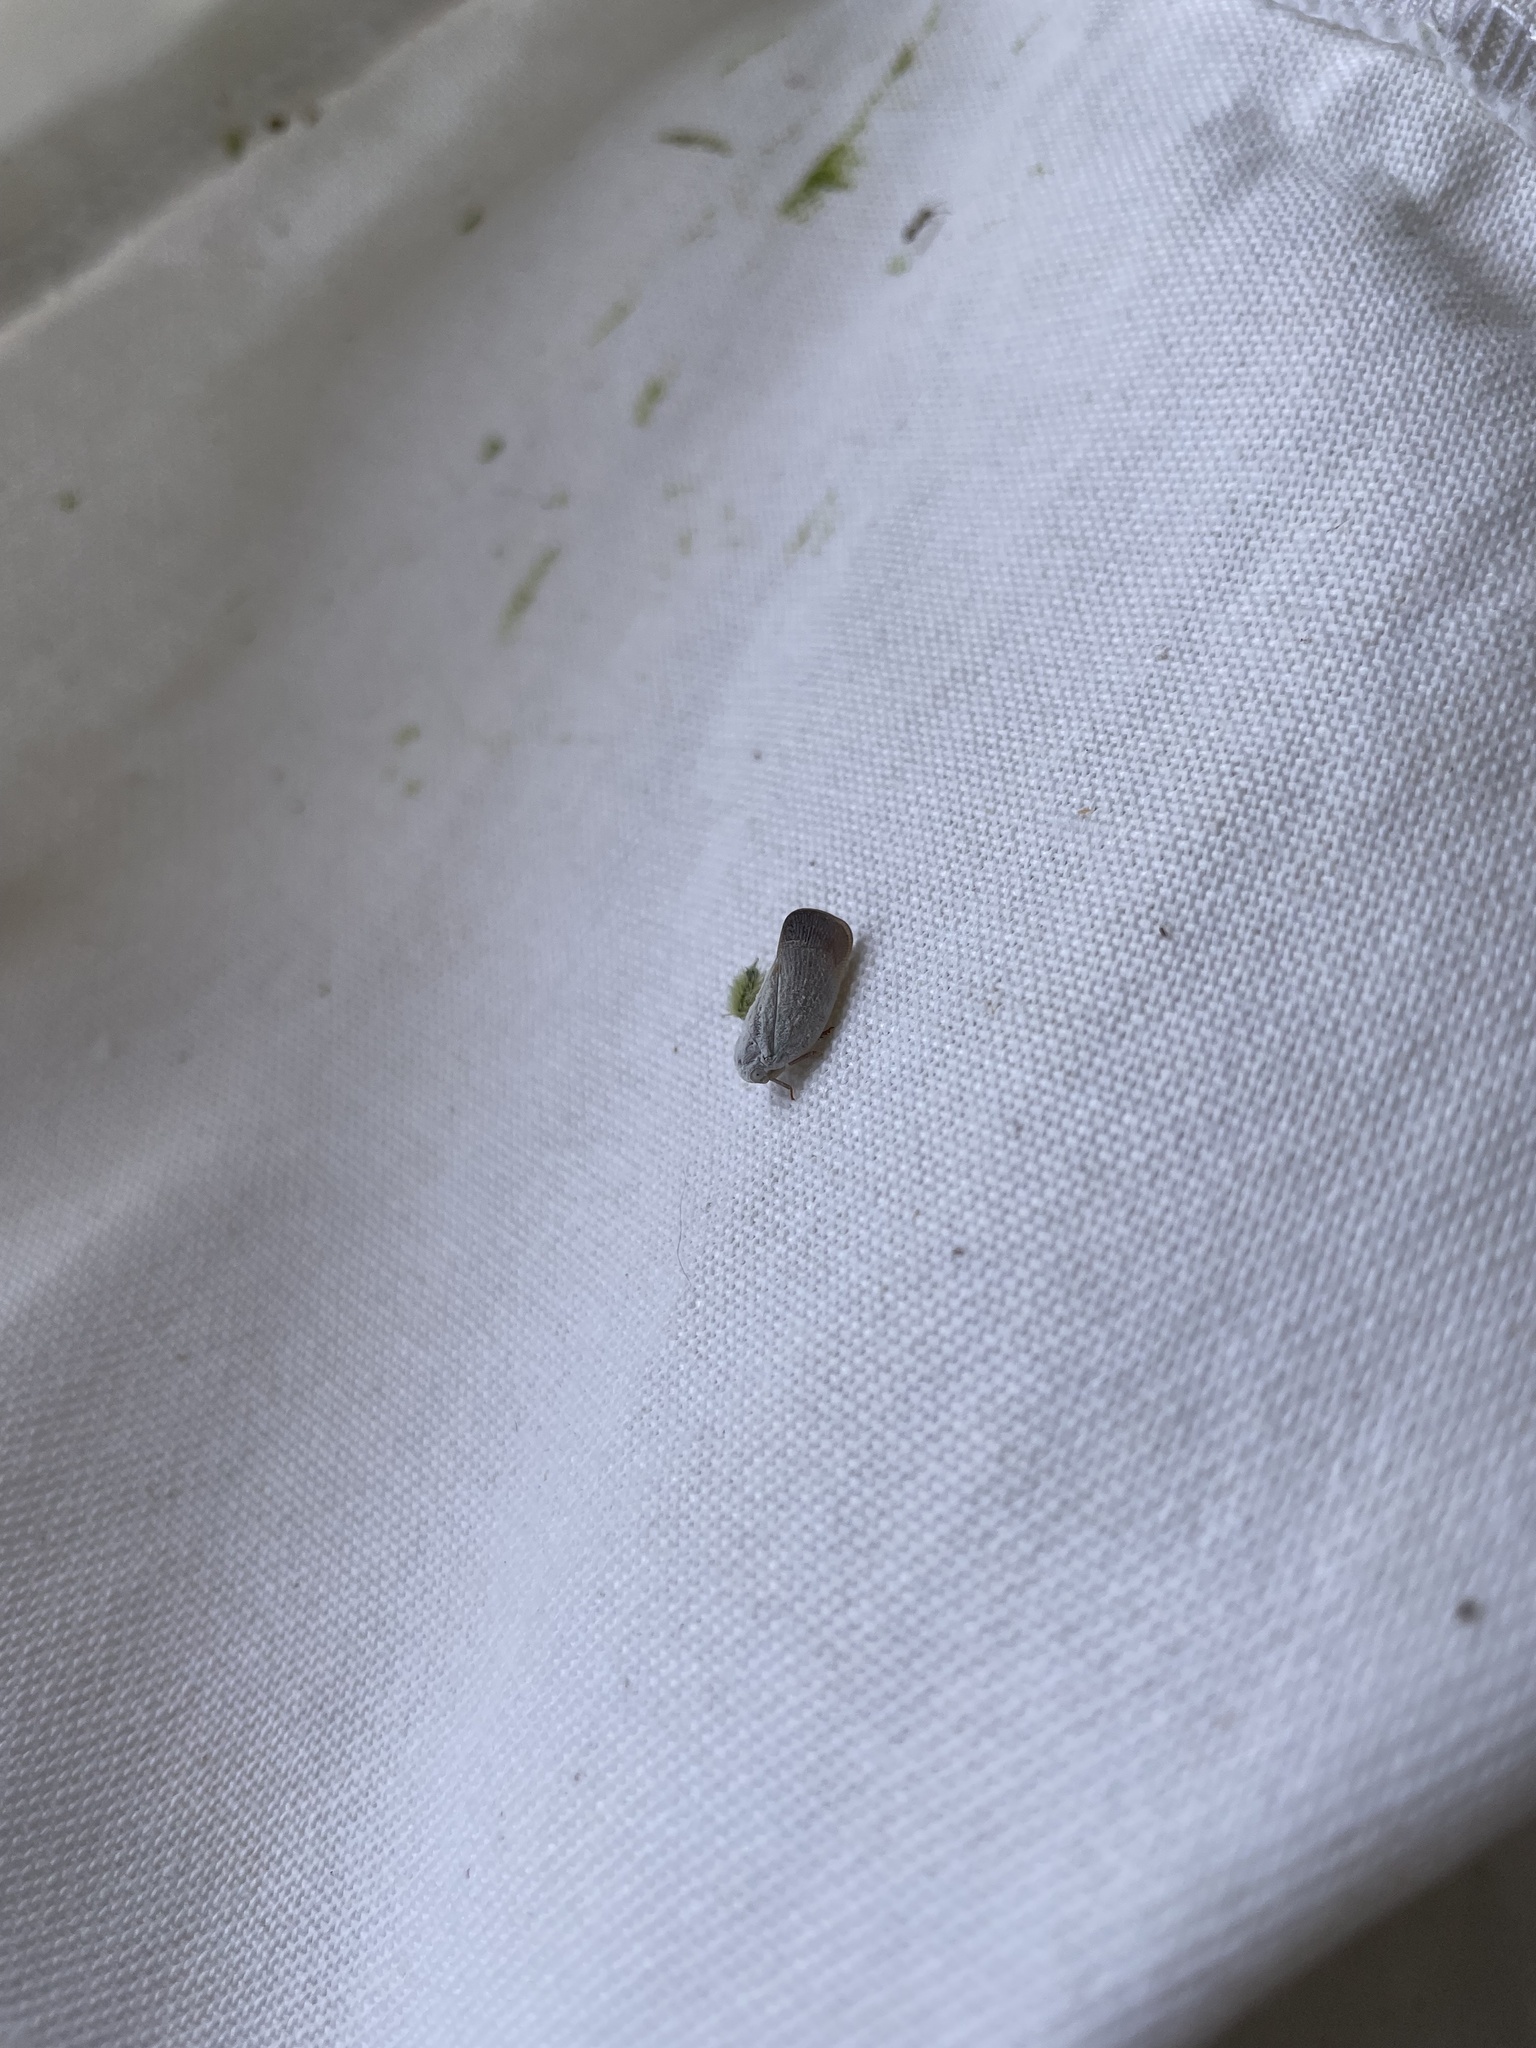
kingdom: Animalia
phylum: Arthropoda
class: Insecta
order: Hemiptera
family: Flatidae
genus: Metcalfa
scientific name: Metcalfa pruinosa
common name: Citrus flatid planthopper
